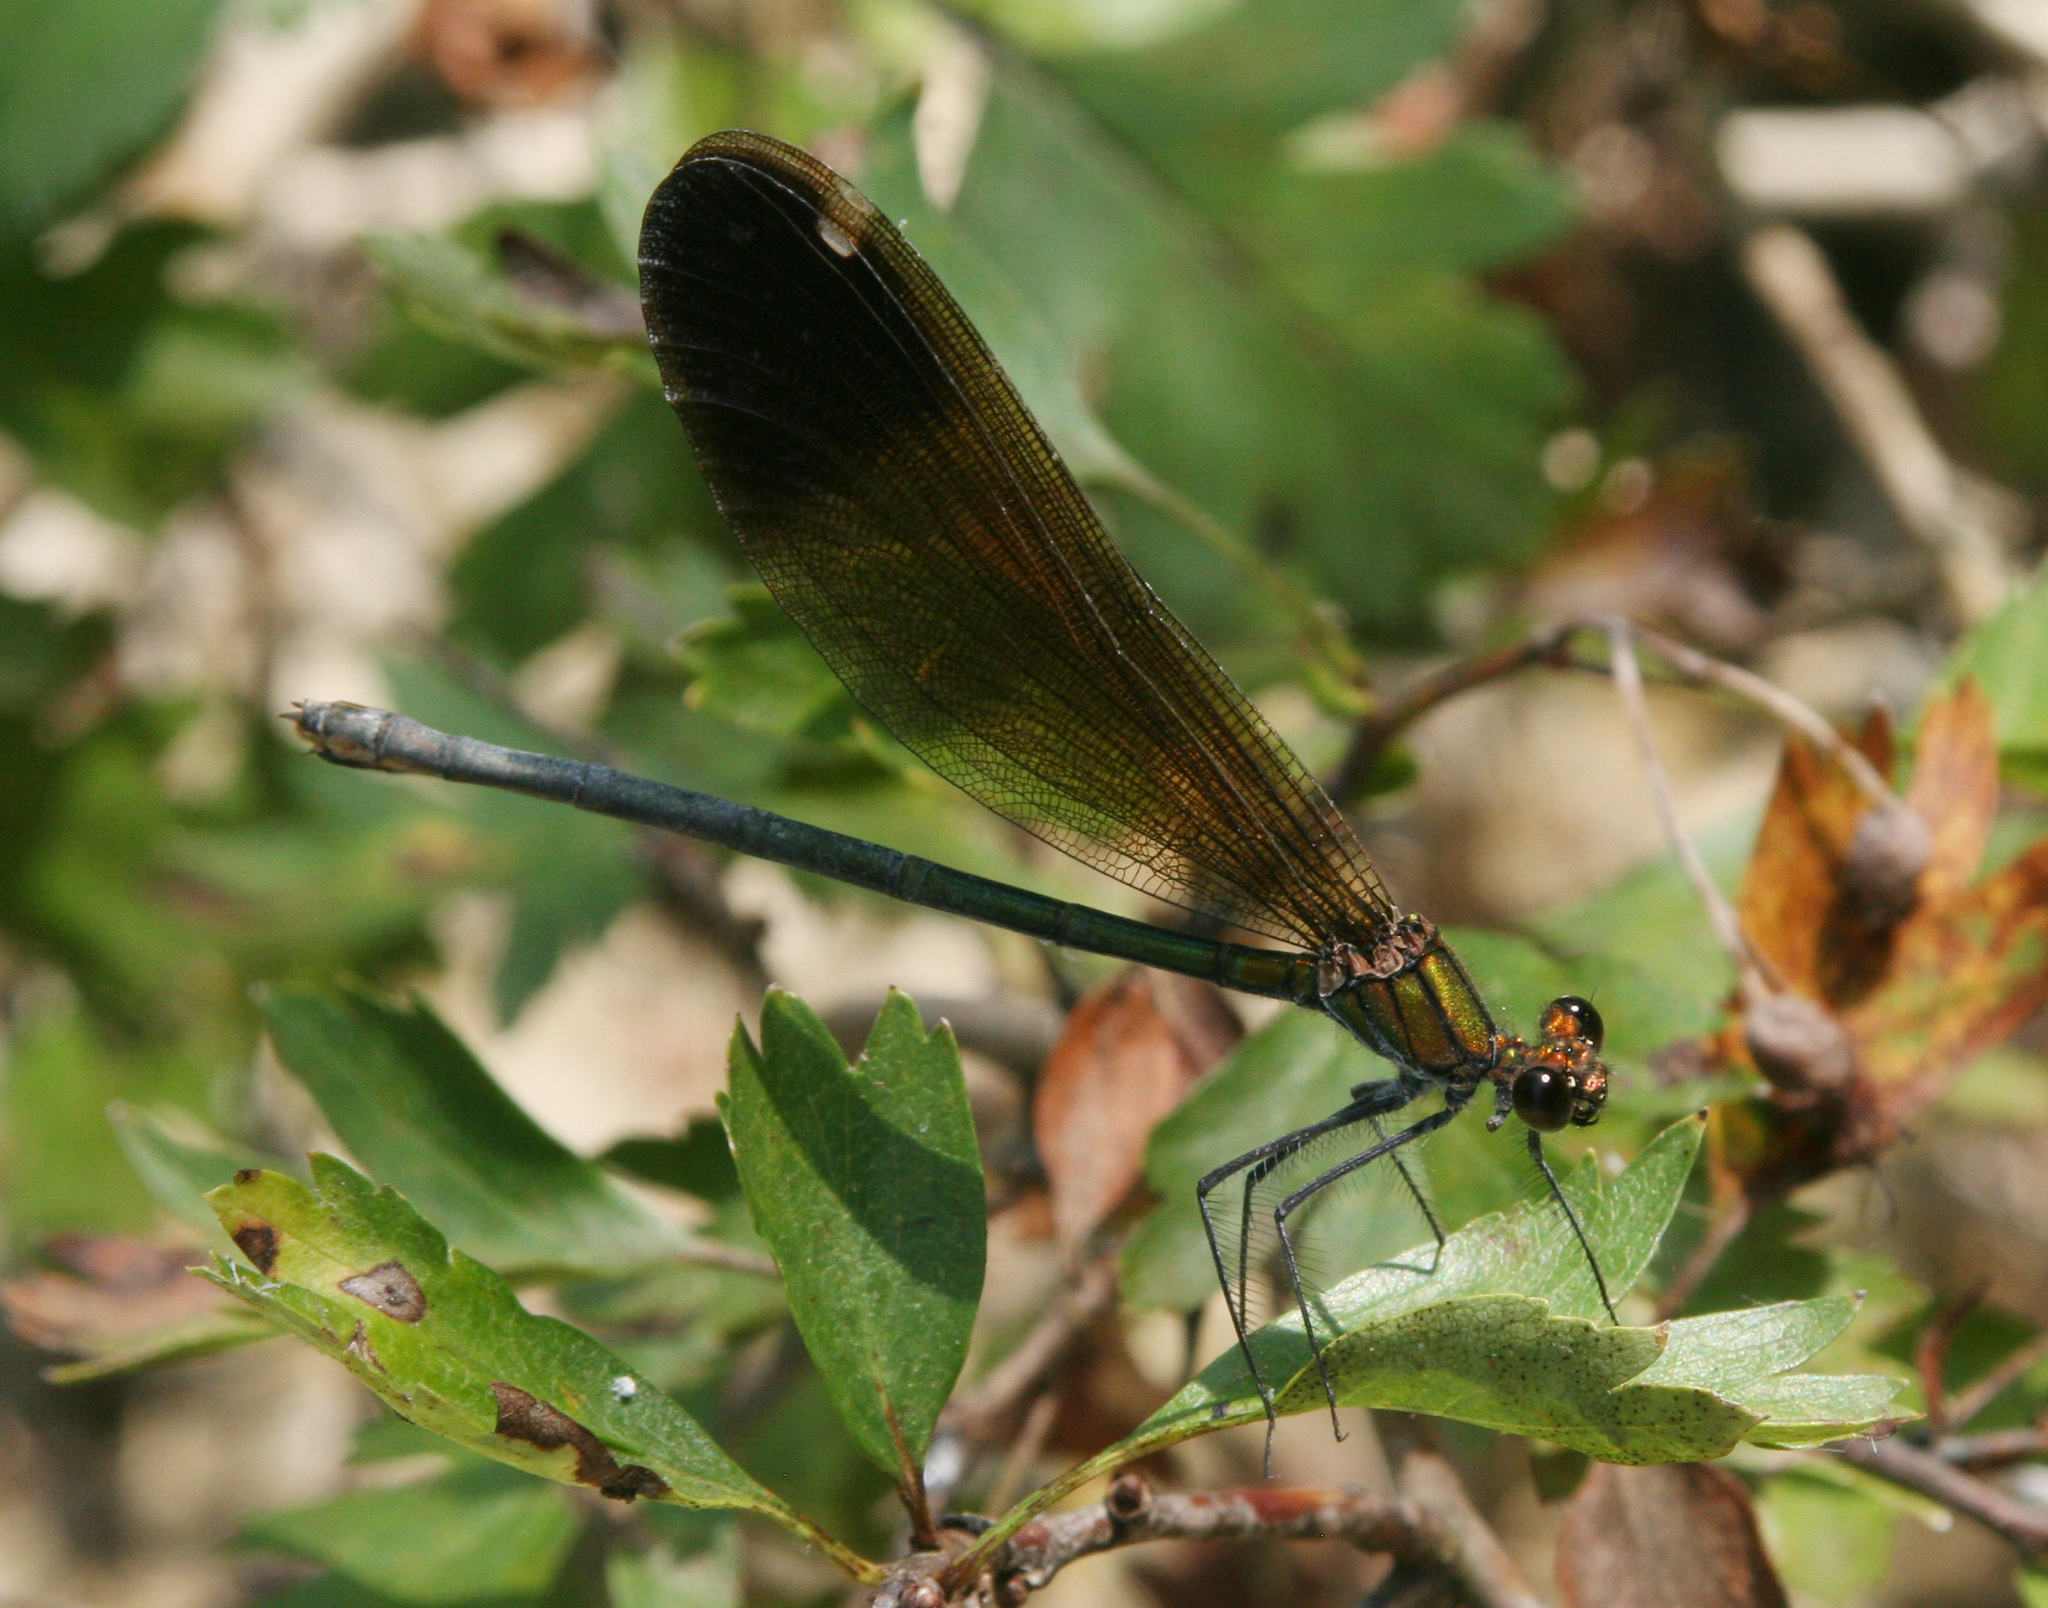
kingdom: Animalia
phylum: Arthropoda
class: Insecta
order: Odonata
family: Calopterygidae
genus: Calopteryx
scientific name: Calopteryx virgo
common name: Beautiful demoiselle
